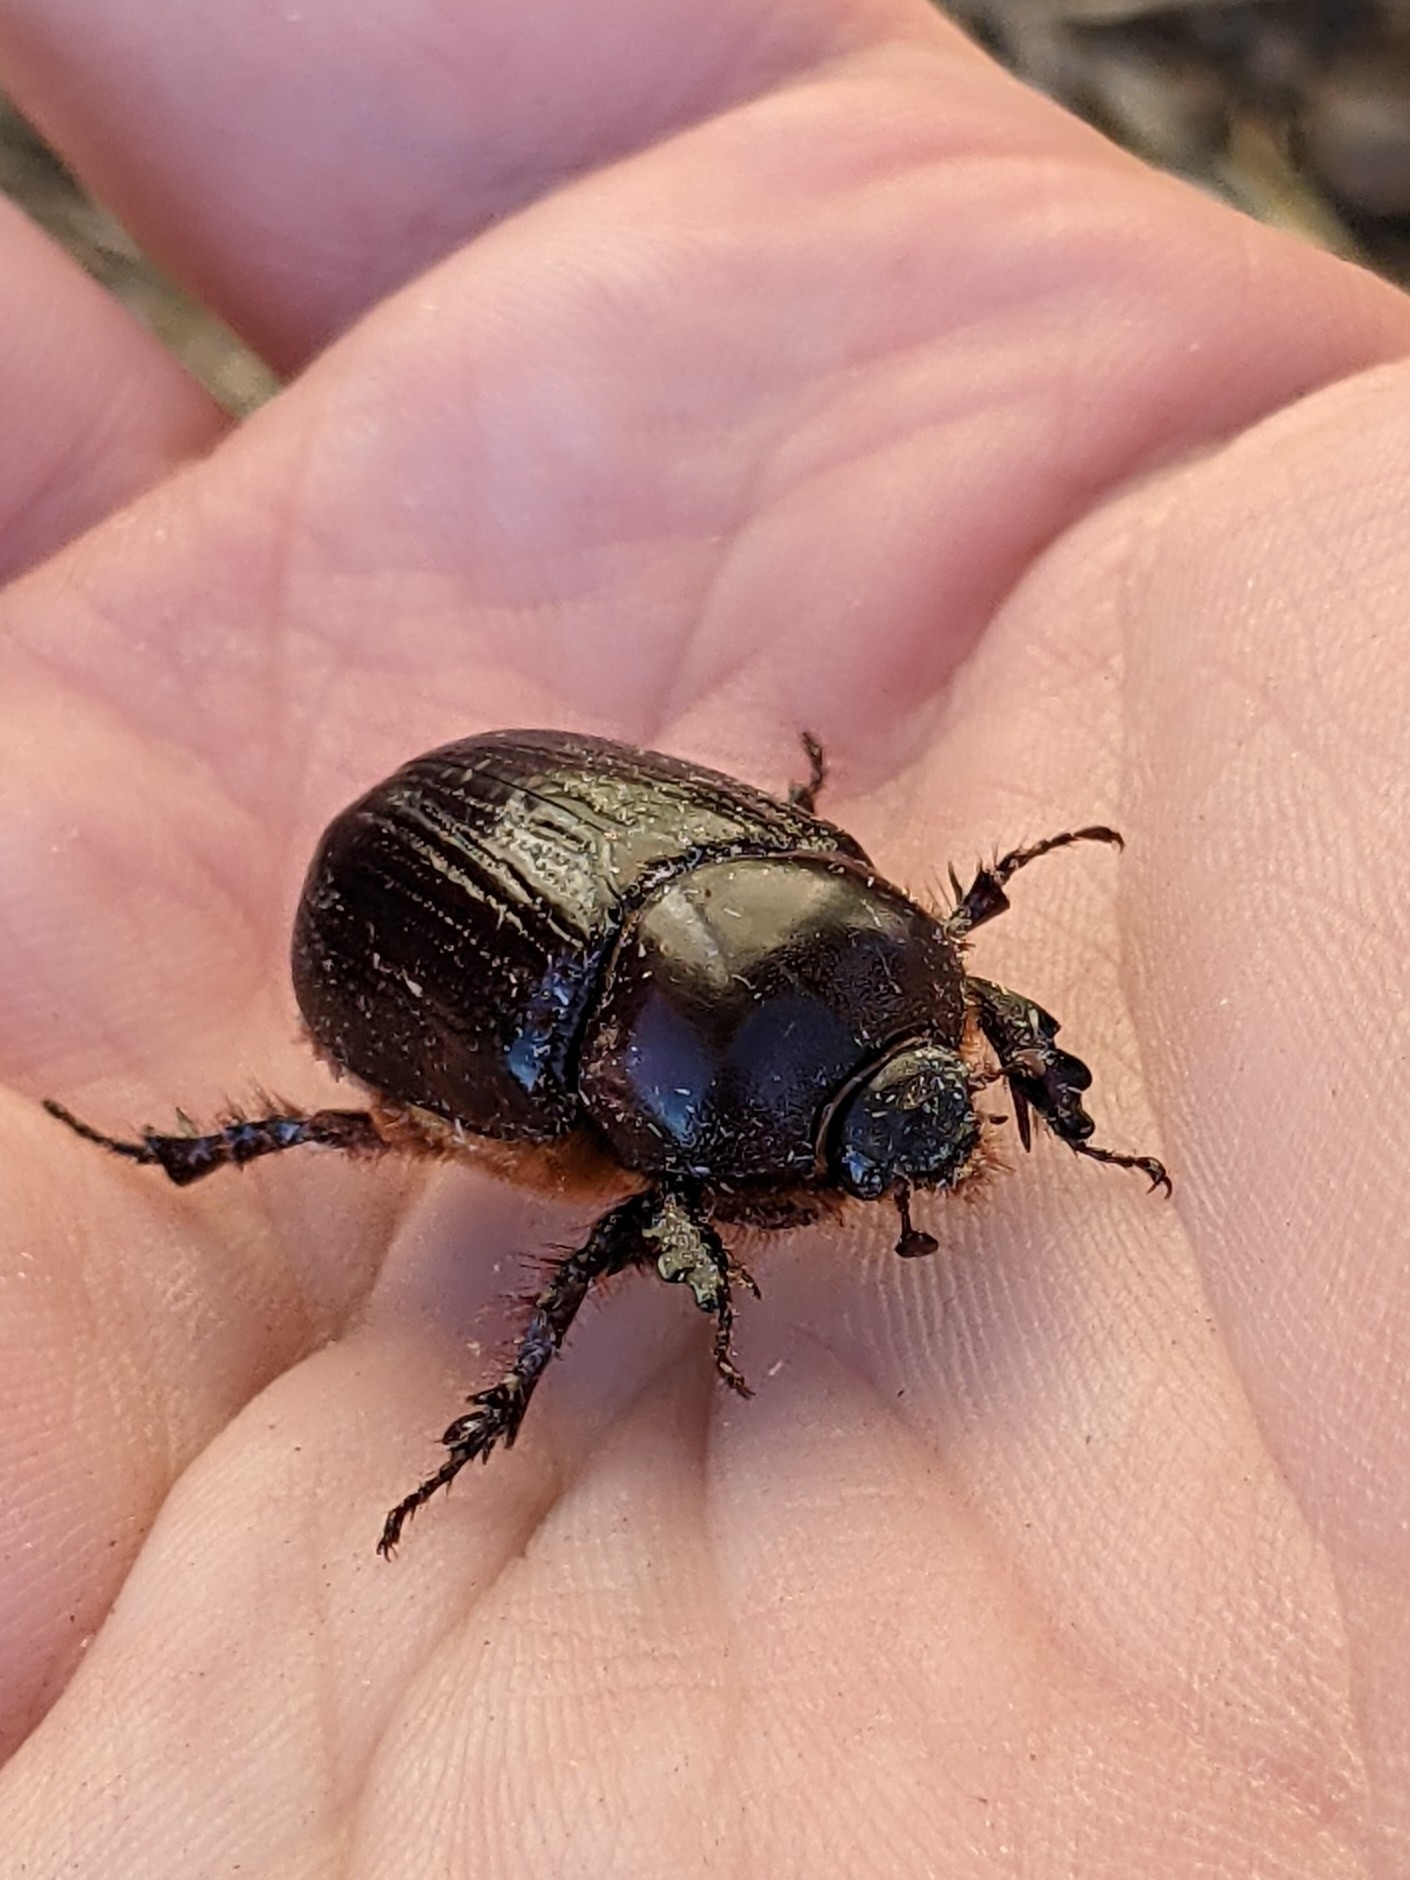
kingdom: Animalia
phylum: Arthropoda
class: Insecta
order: Coleoptera
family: Scarabaeidae
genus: Xyloryctes
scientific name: Xyloryctes thestalus
